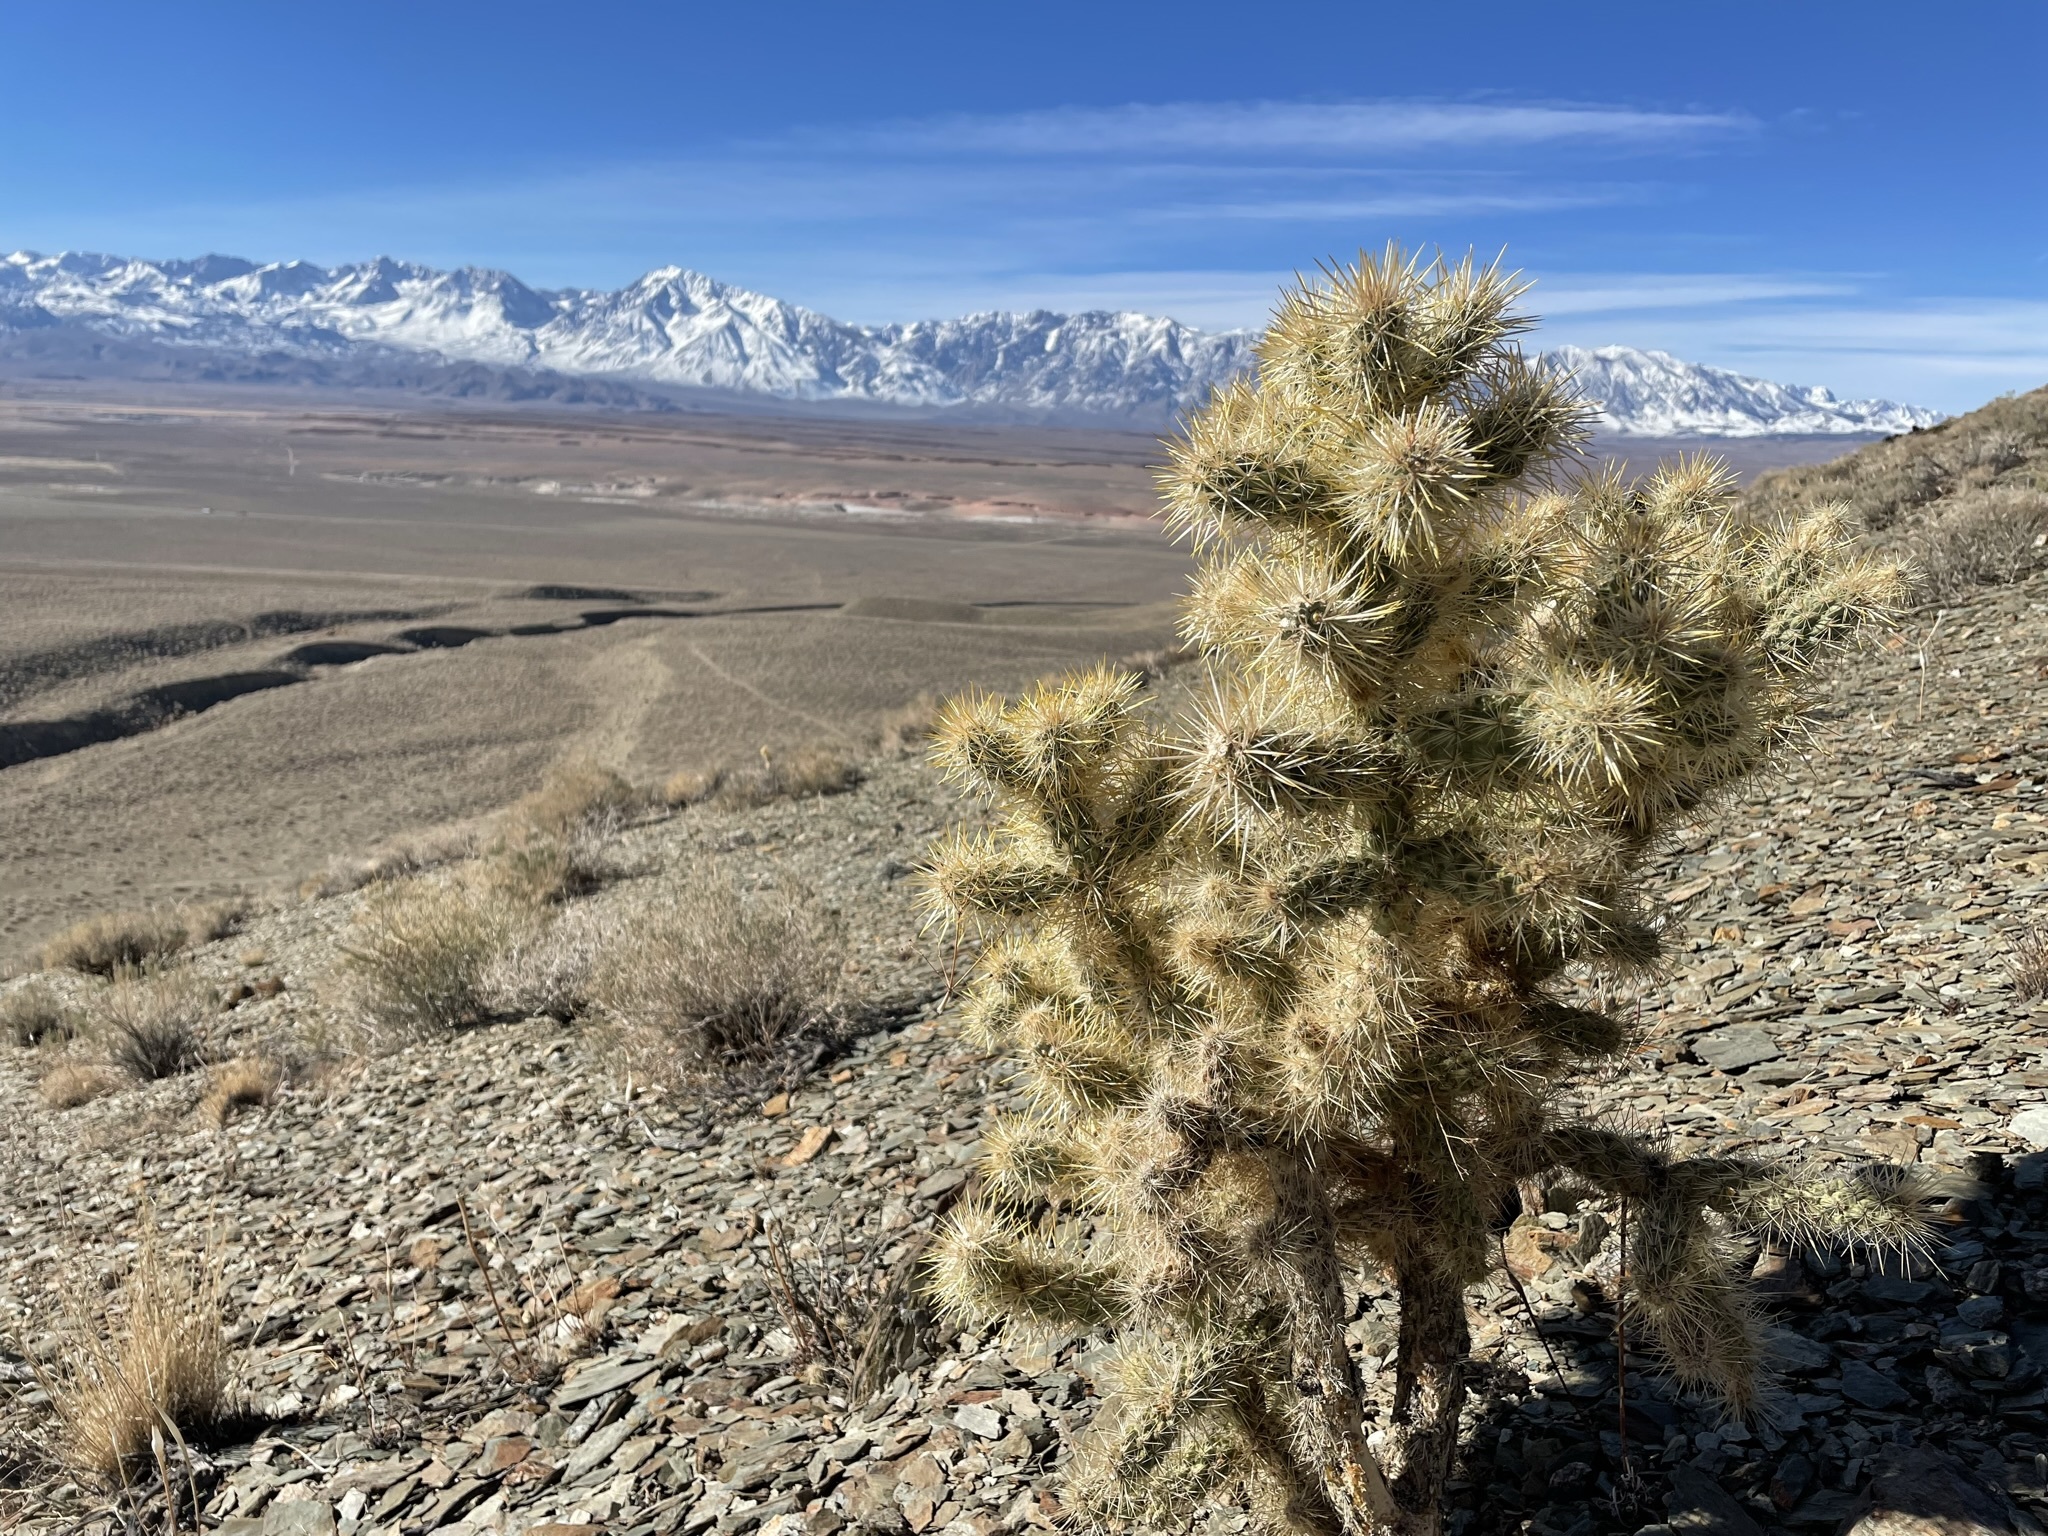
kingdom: Plantae
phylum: Tracheophyta
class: Magnoliopsida
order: Caryophyllales
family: Cactaceae
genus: Cylindropuntia
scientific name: Cylindropuntia echinocarpa
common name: Ground cholla
